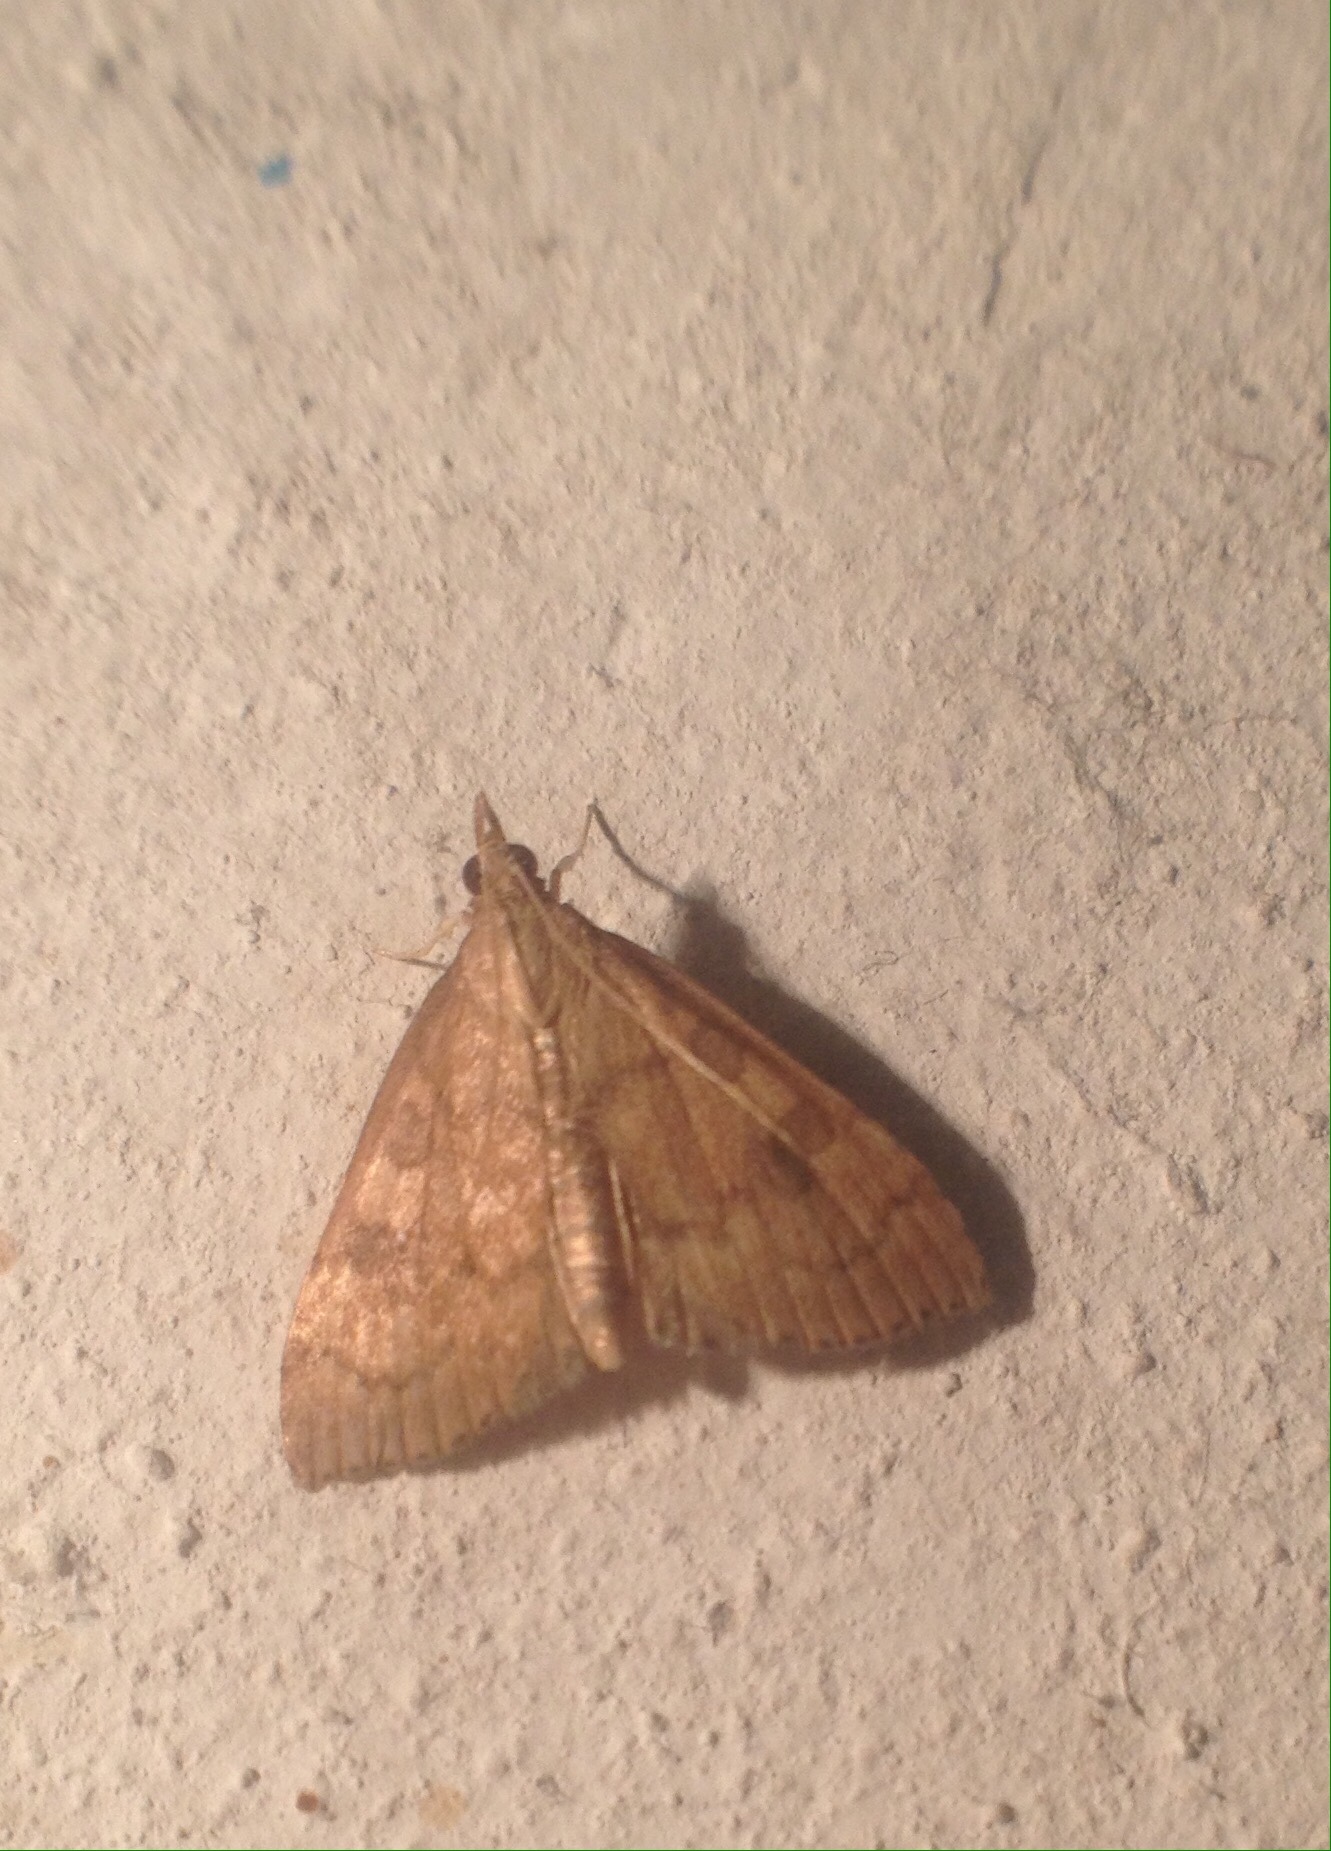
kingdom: Animalia
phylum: Arthropoda
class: Insecta
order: Lepidoptera
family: Crambidae
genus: Udea
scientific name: Udea fulvalis
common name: Fulvous pearl
